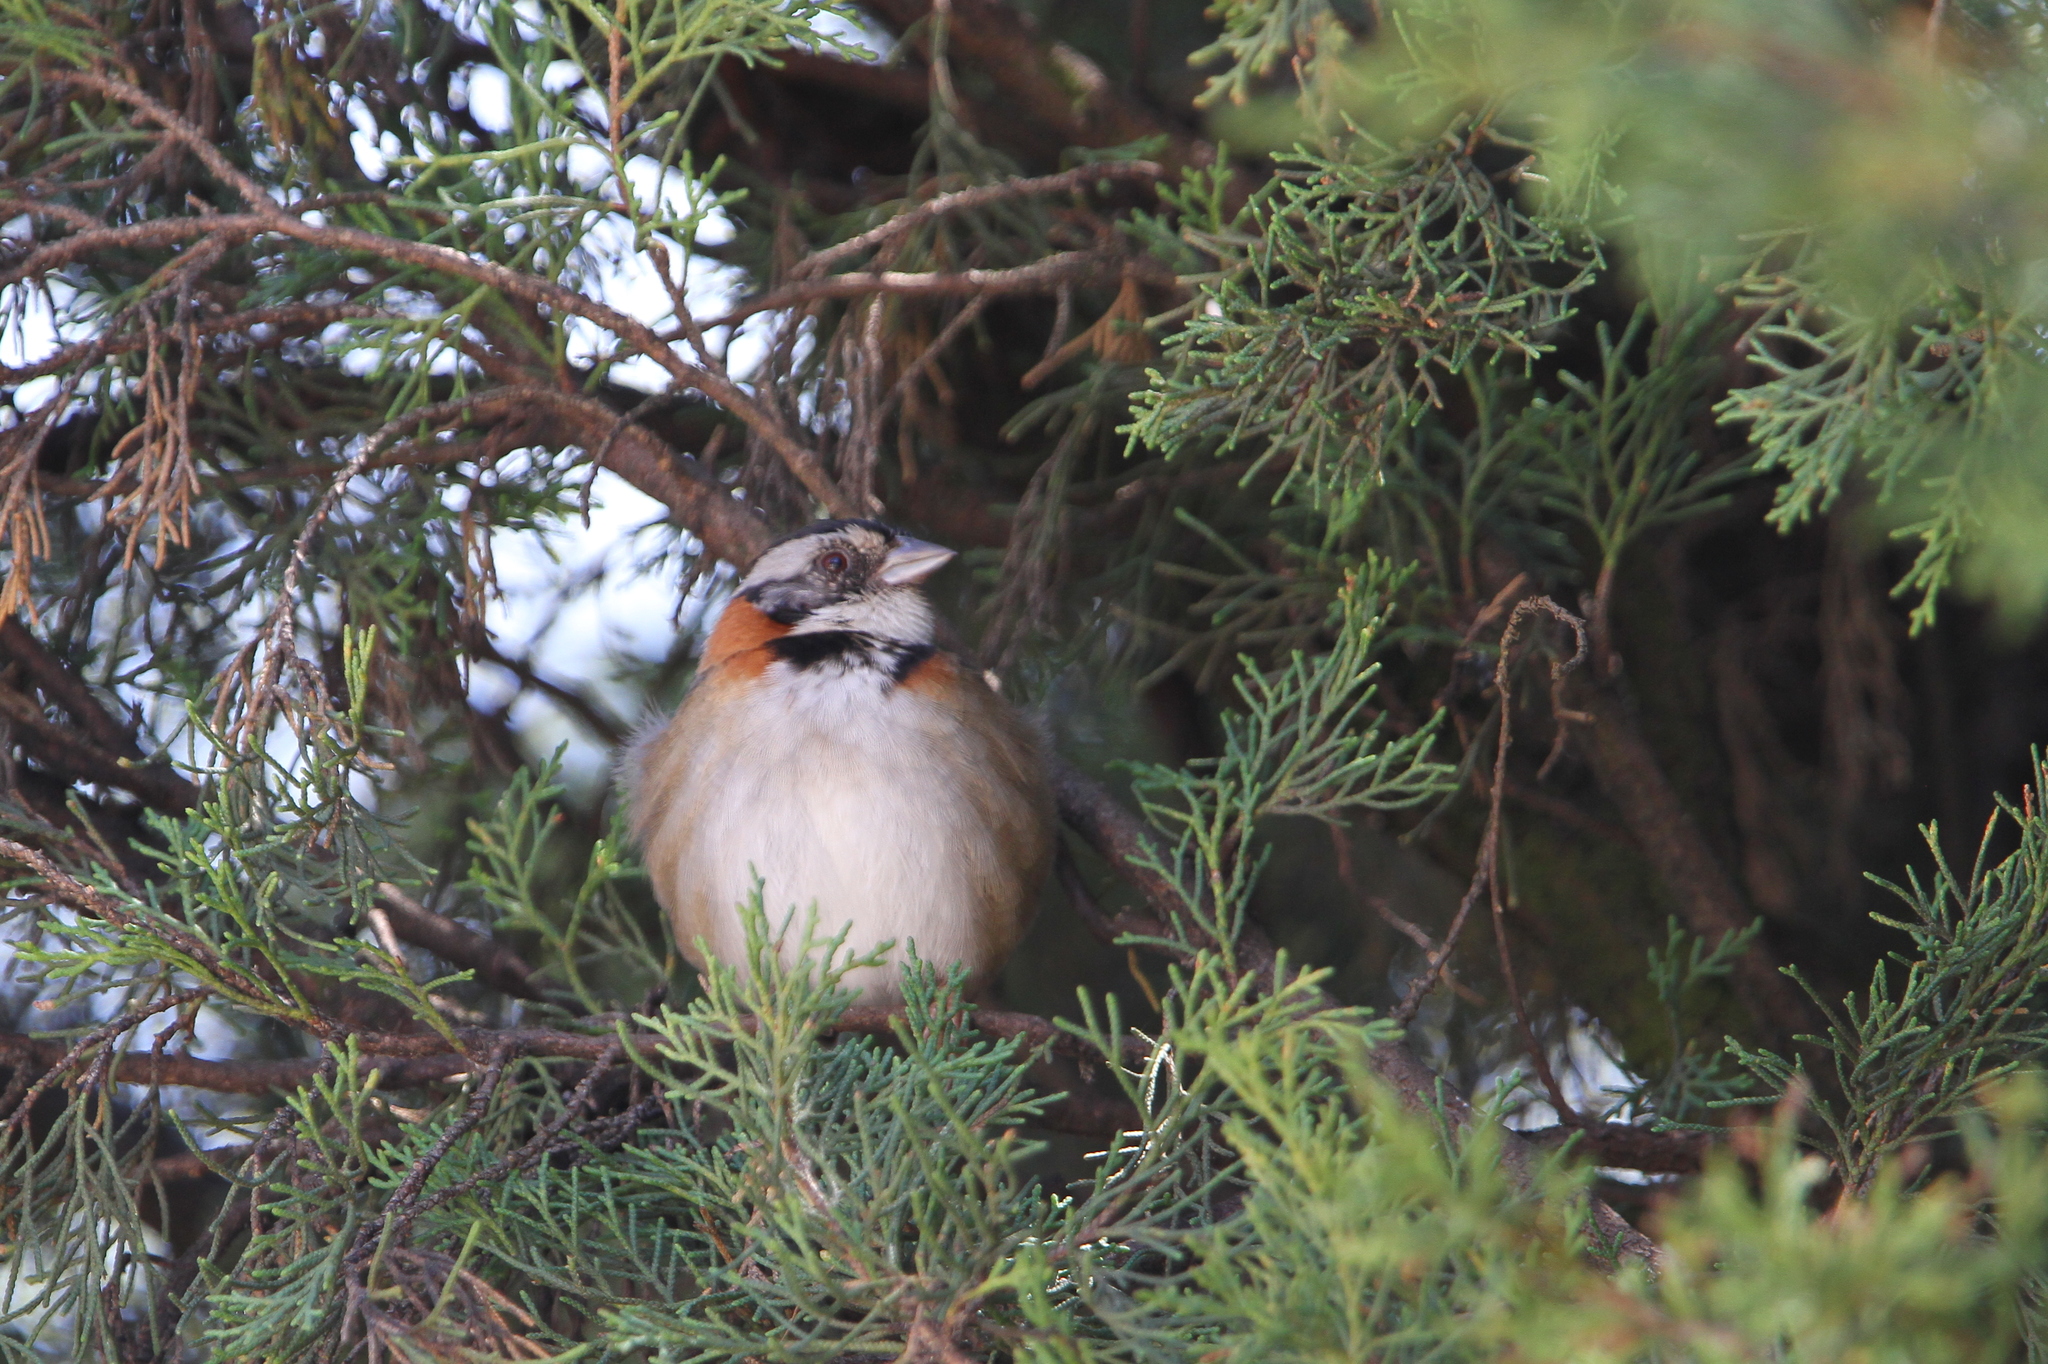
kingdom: Animalia
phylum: Chordata
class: Aves
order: Passeriformes
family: Passerellidae
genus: Zonotrichia
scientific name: Zonotrichia capensis
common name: Rufous-collared sparrow
